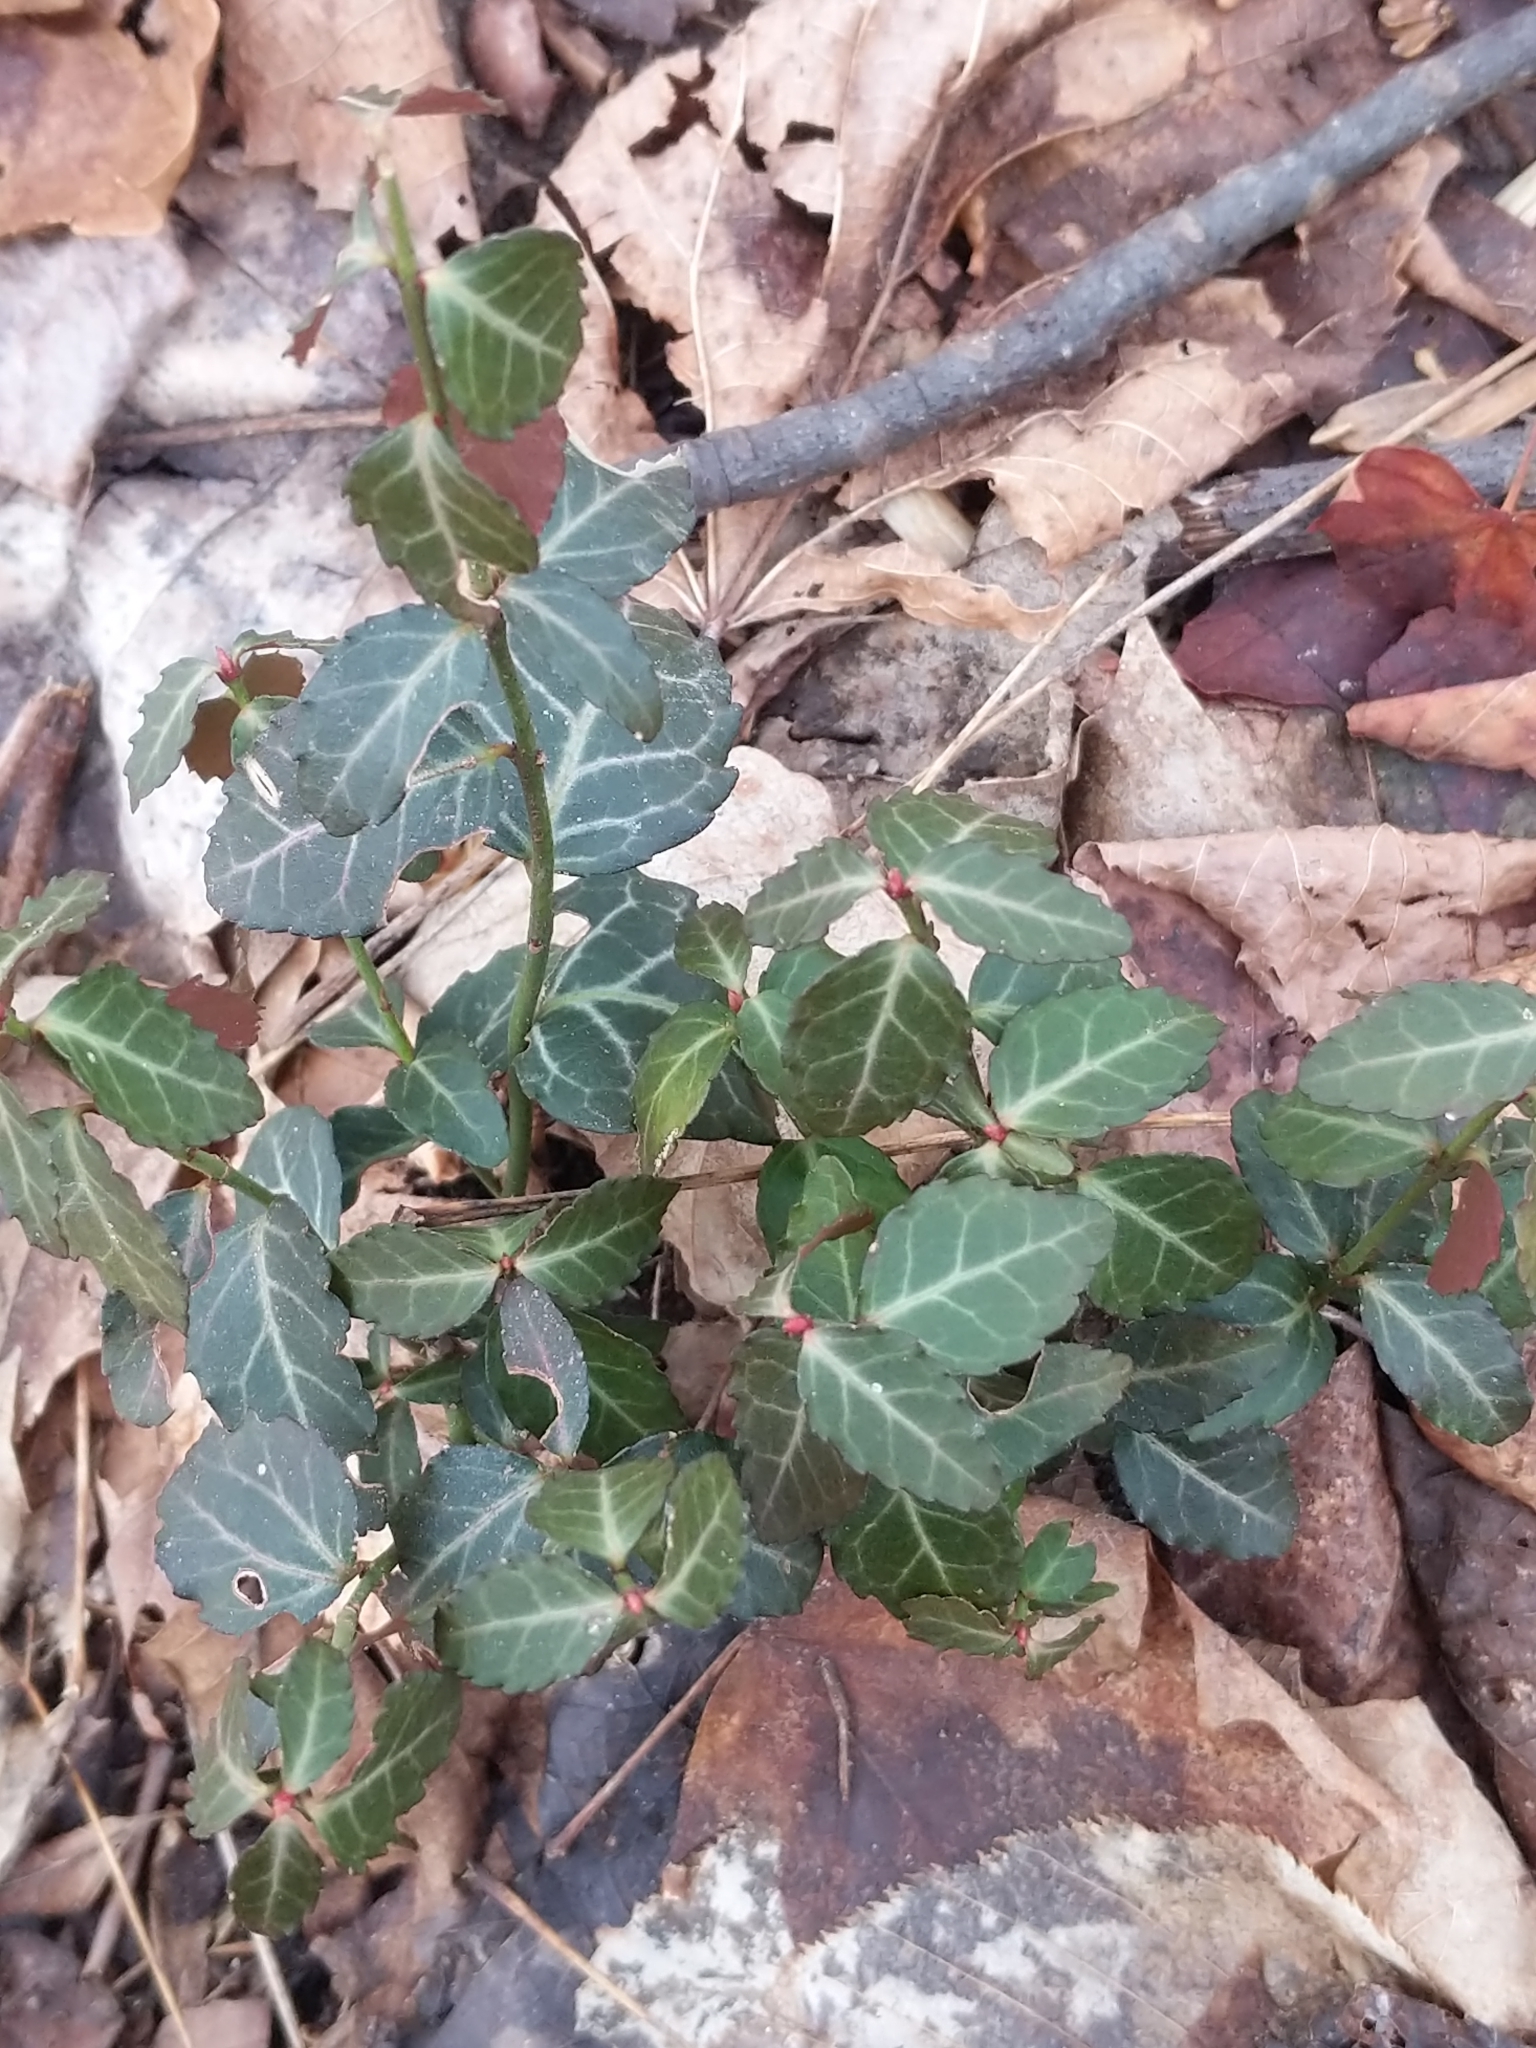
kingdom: Plantae
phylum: Tracheophyta
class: Magnoliopsida
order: Celastrales
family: Celastraceae
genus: Euonymus
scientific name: Euonymus fortunei
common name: Climbing euonymus
